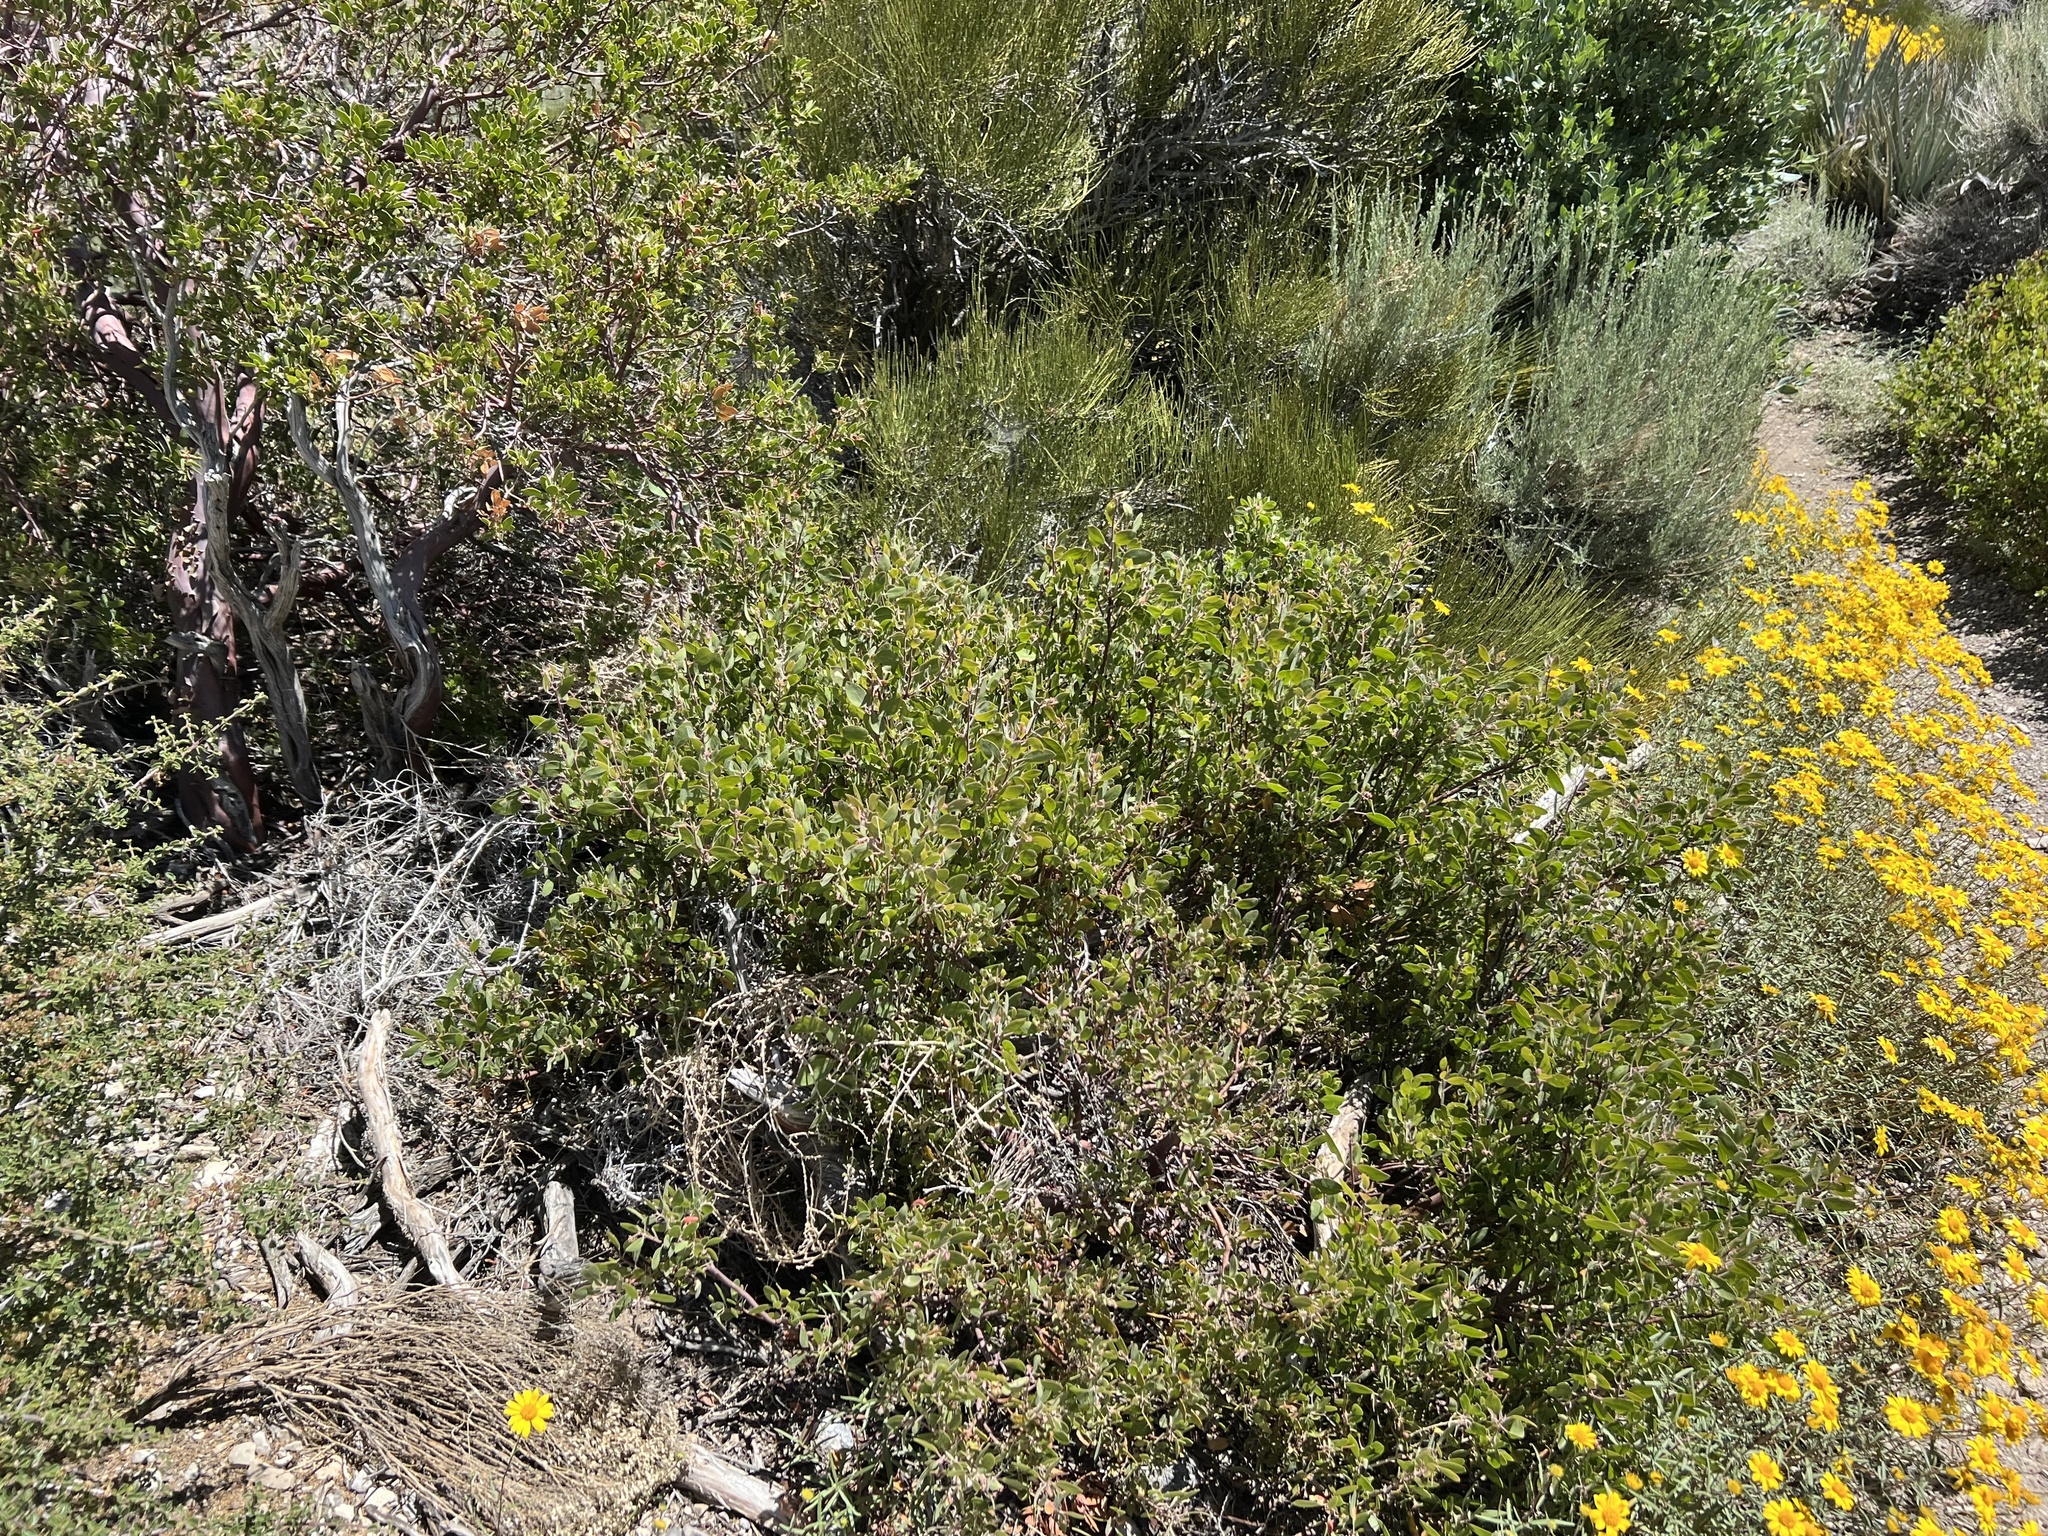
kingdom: Plantae
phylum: Tracheophyta
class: Magnoliopsida
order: Ericales
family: Ericaceae
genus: Arctostaphylos
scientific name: Arctostaphylos pungens
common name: Mexican manzanita
